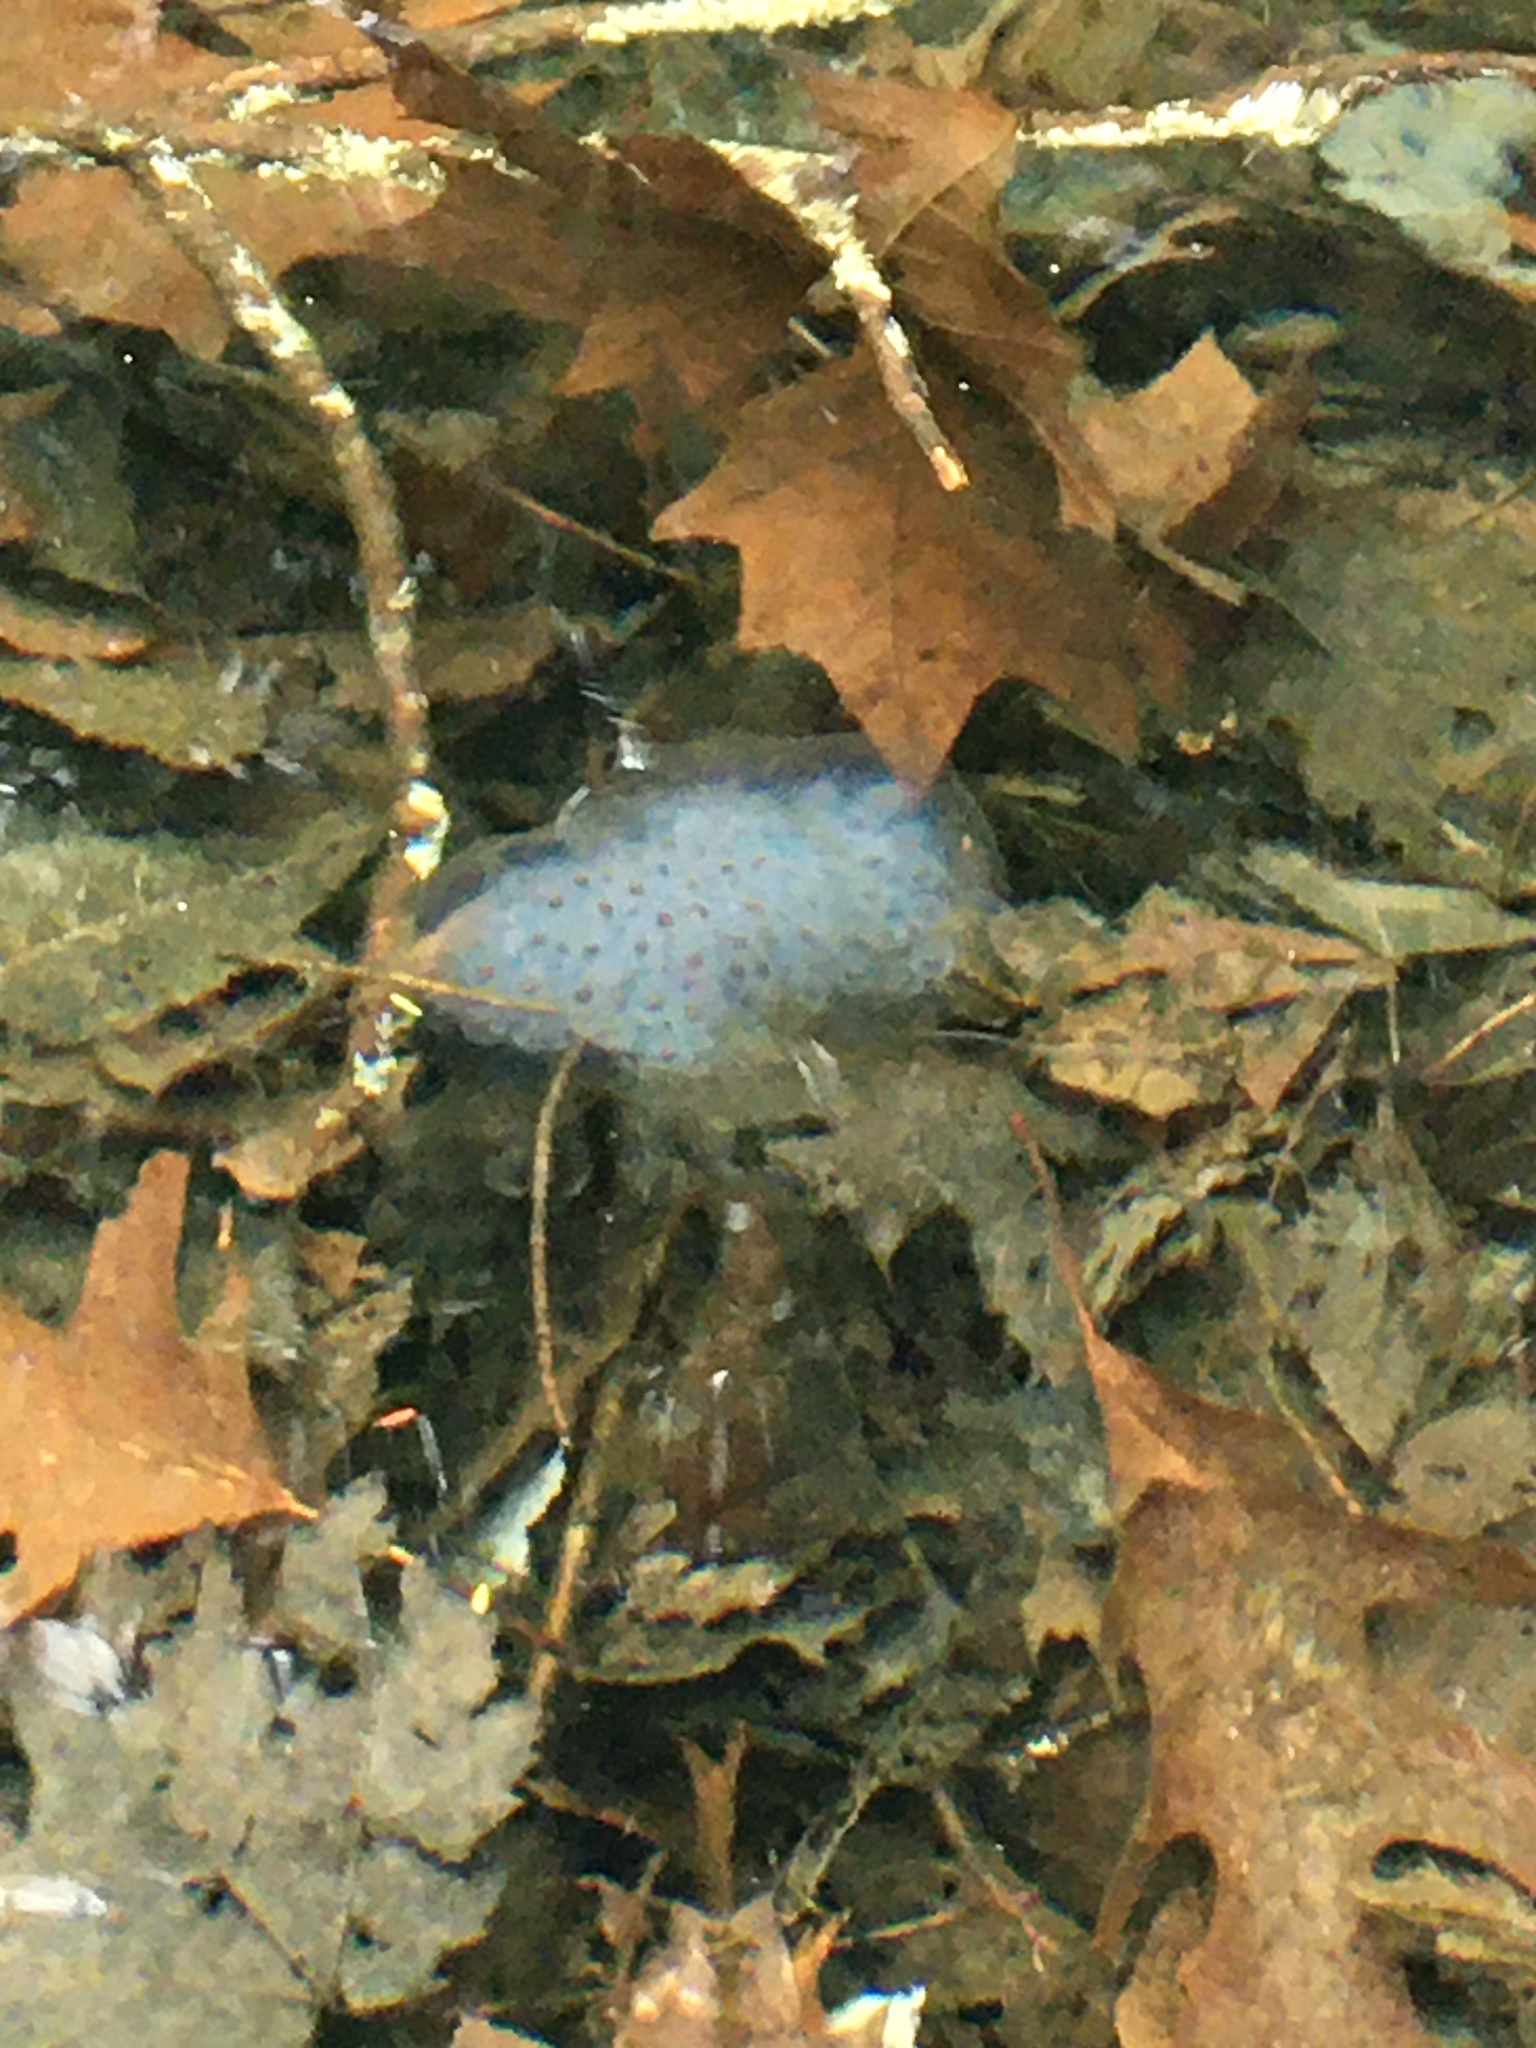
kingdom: Animalia
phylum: Chordata
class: Amphibia
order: Caudata
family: Ambystomatidae
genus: Ambystoma
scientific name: Ambystoma maculatum
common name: Spotted salamander
